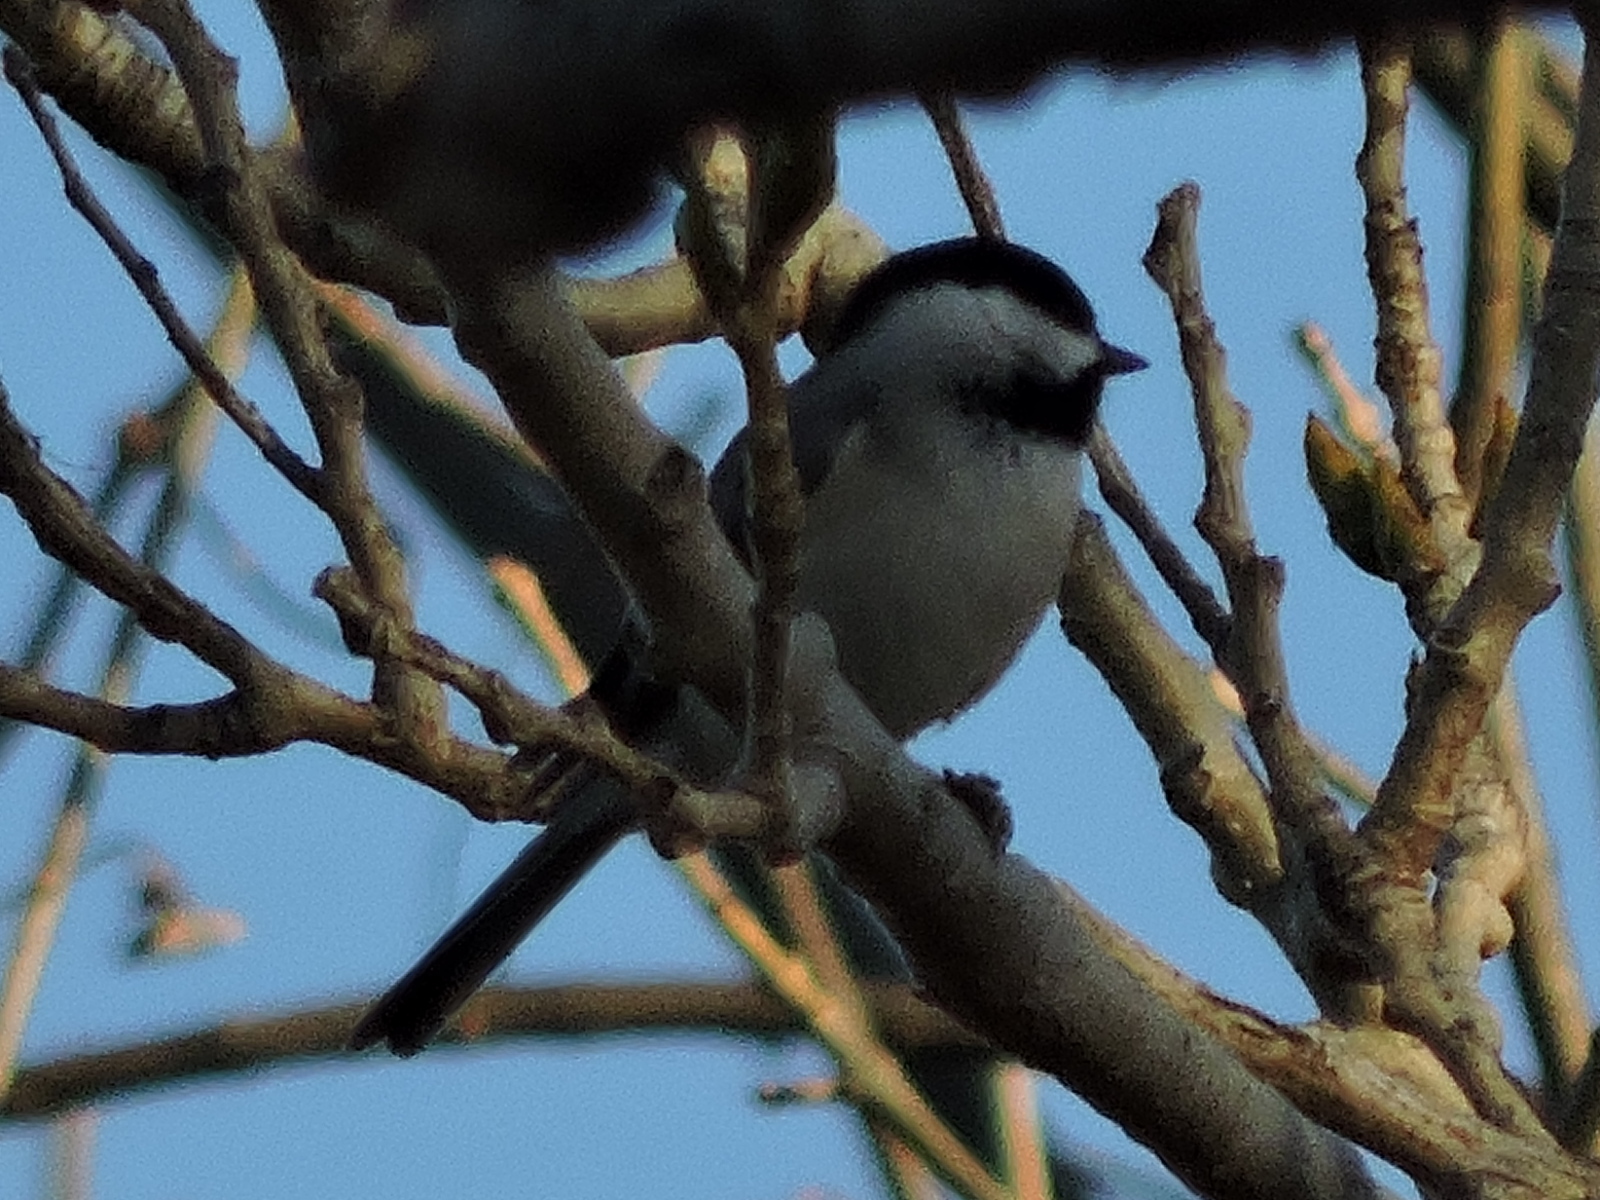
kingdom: Animalia
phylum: Chordata
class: Aves
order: Passeriformes
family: Paridae
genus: Poecile
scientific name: Poecile carolinensis
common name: Carolina chickadee
